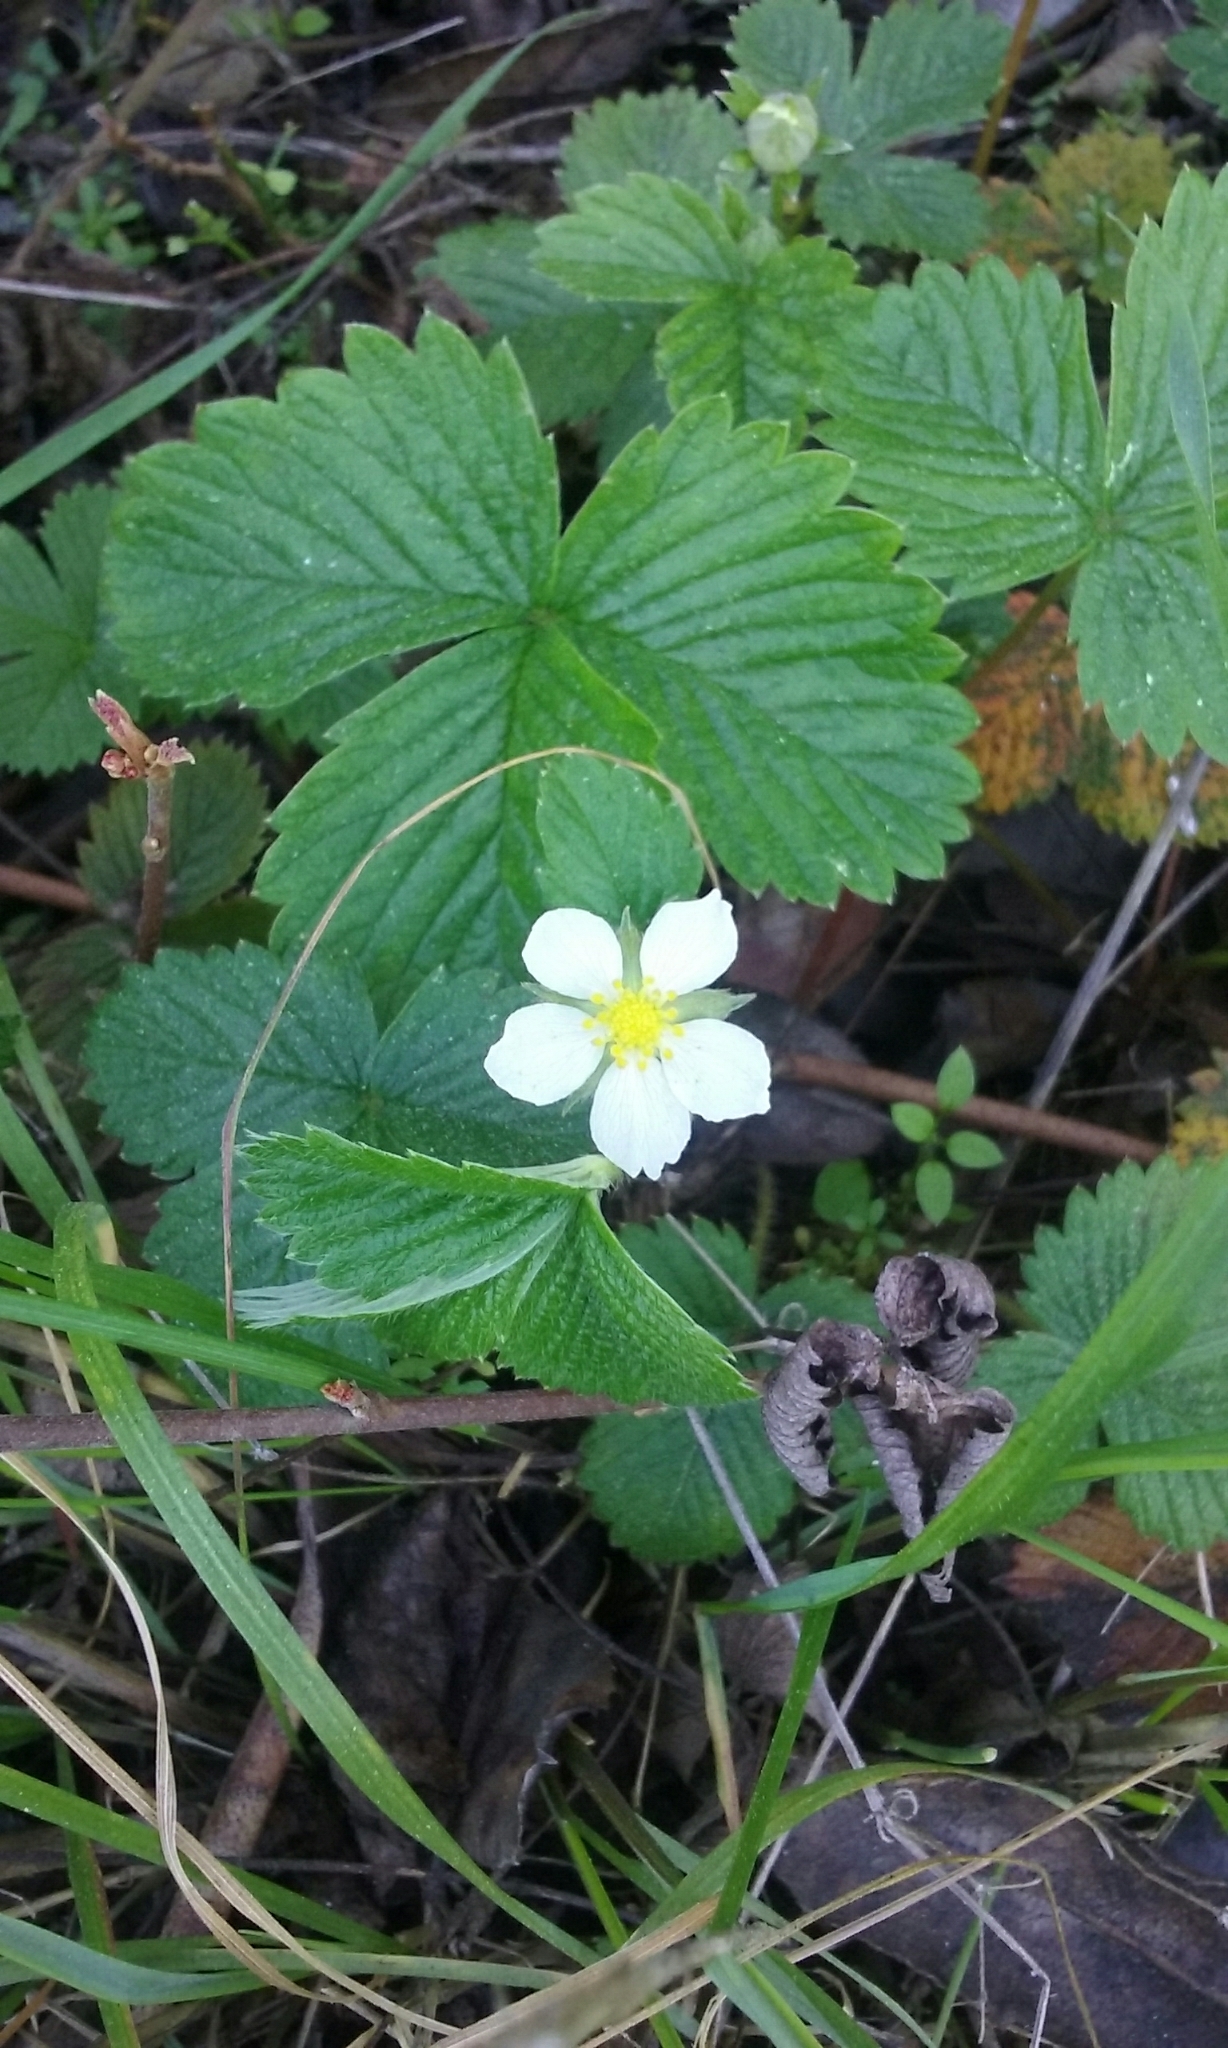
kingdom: Plantae
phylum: Tracheophyta
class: Magnoliopsida
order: Rosales
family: Rosaceae
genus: Fragaria
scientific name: Fragaria vesca
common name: Wild strawberry
